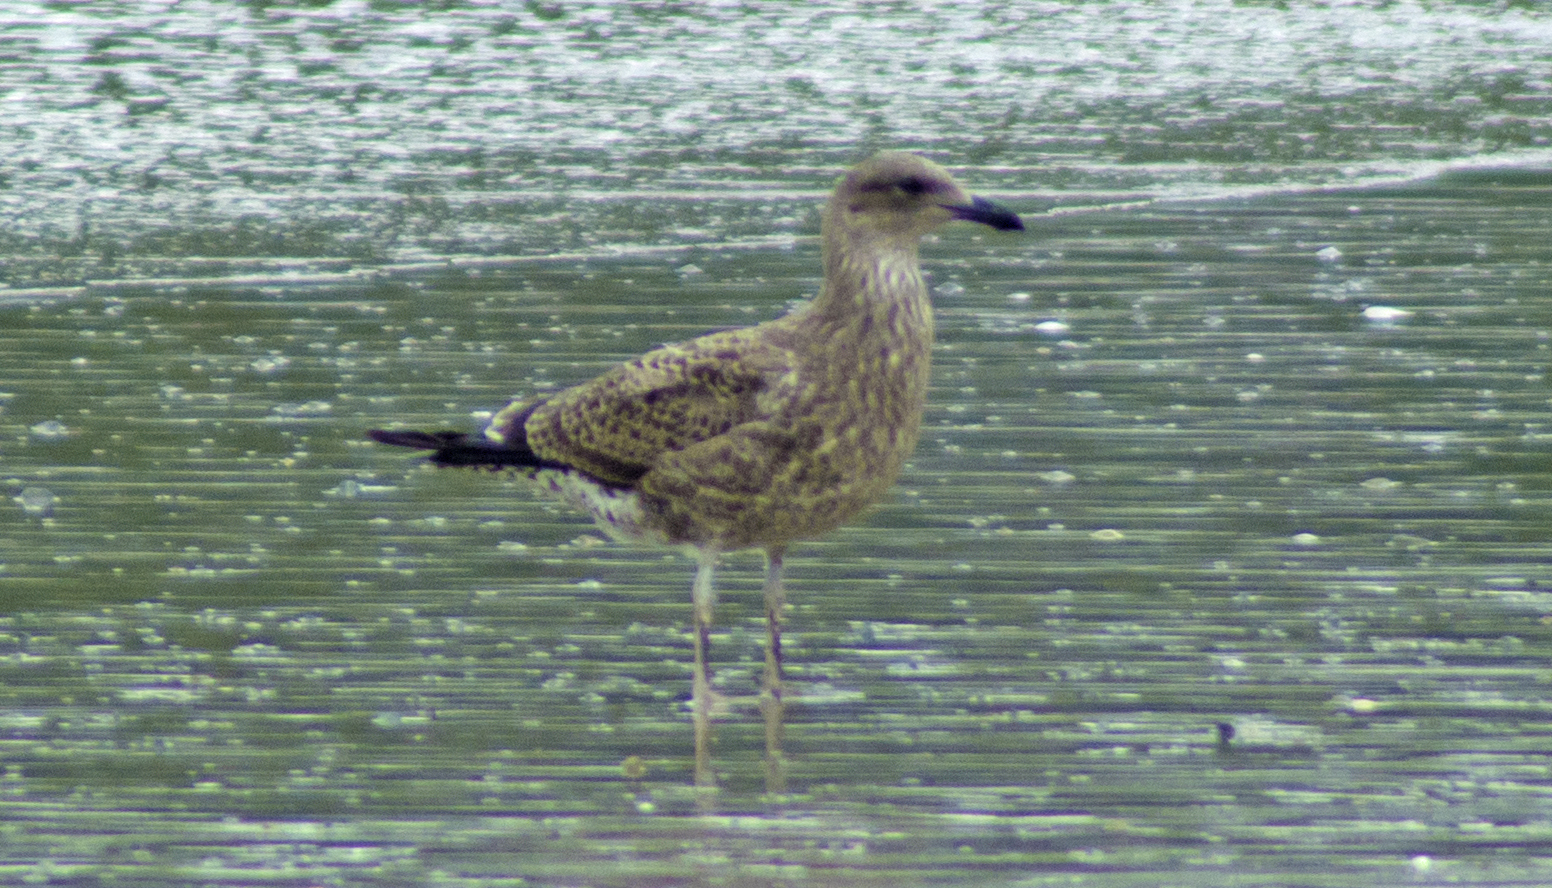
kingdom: Animalia
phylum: Chordata
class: Aves
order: Charadriiformes
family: Laridae
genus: Larus
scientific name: Larus dominicanus
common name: Kelp gull
